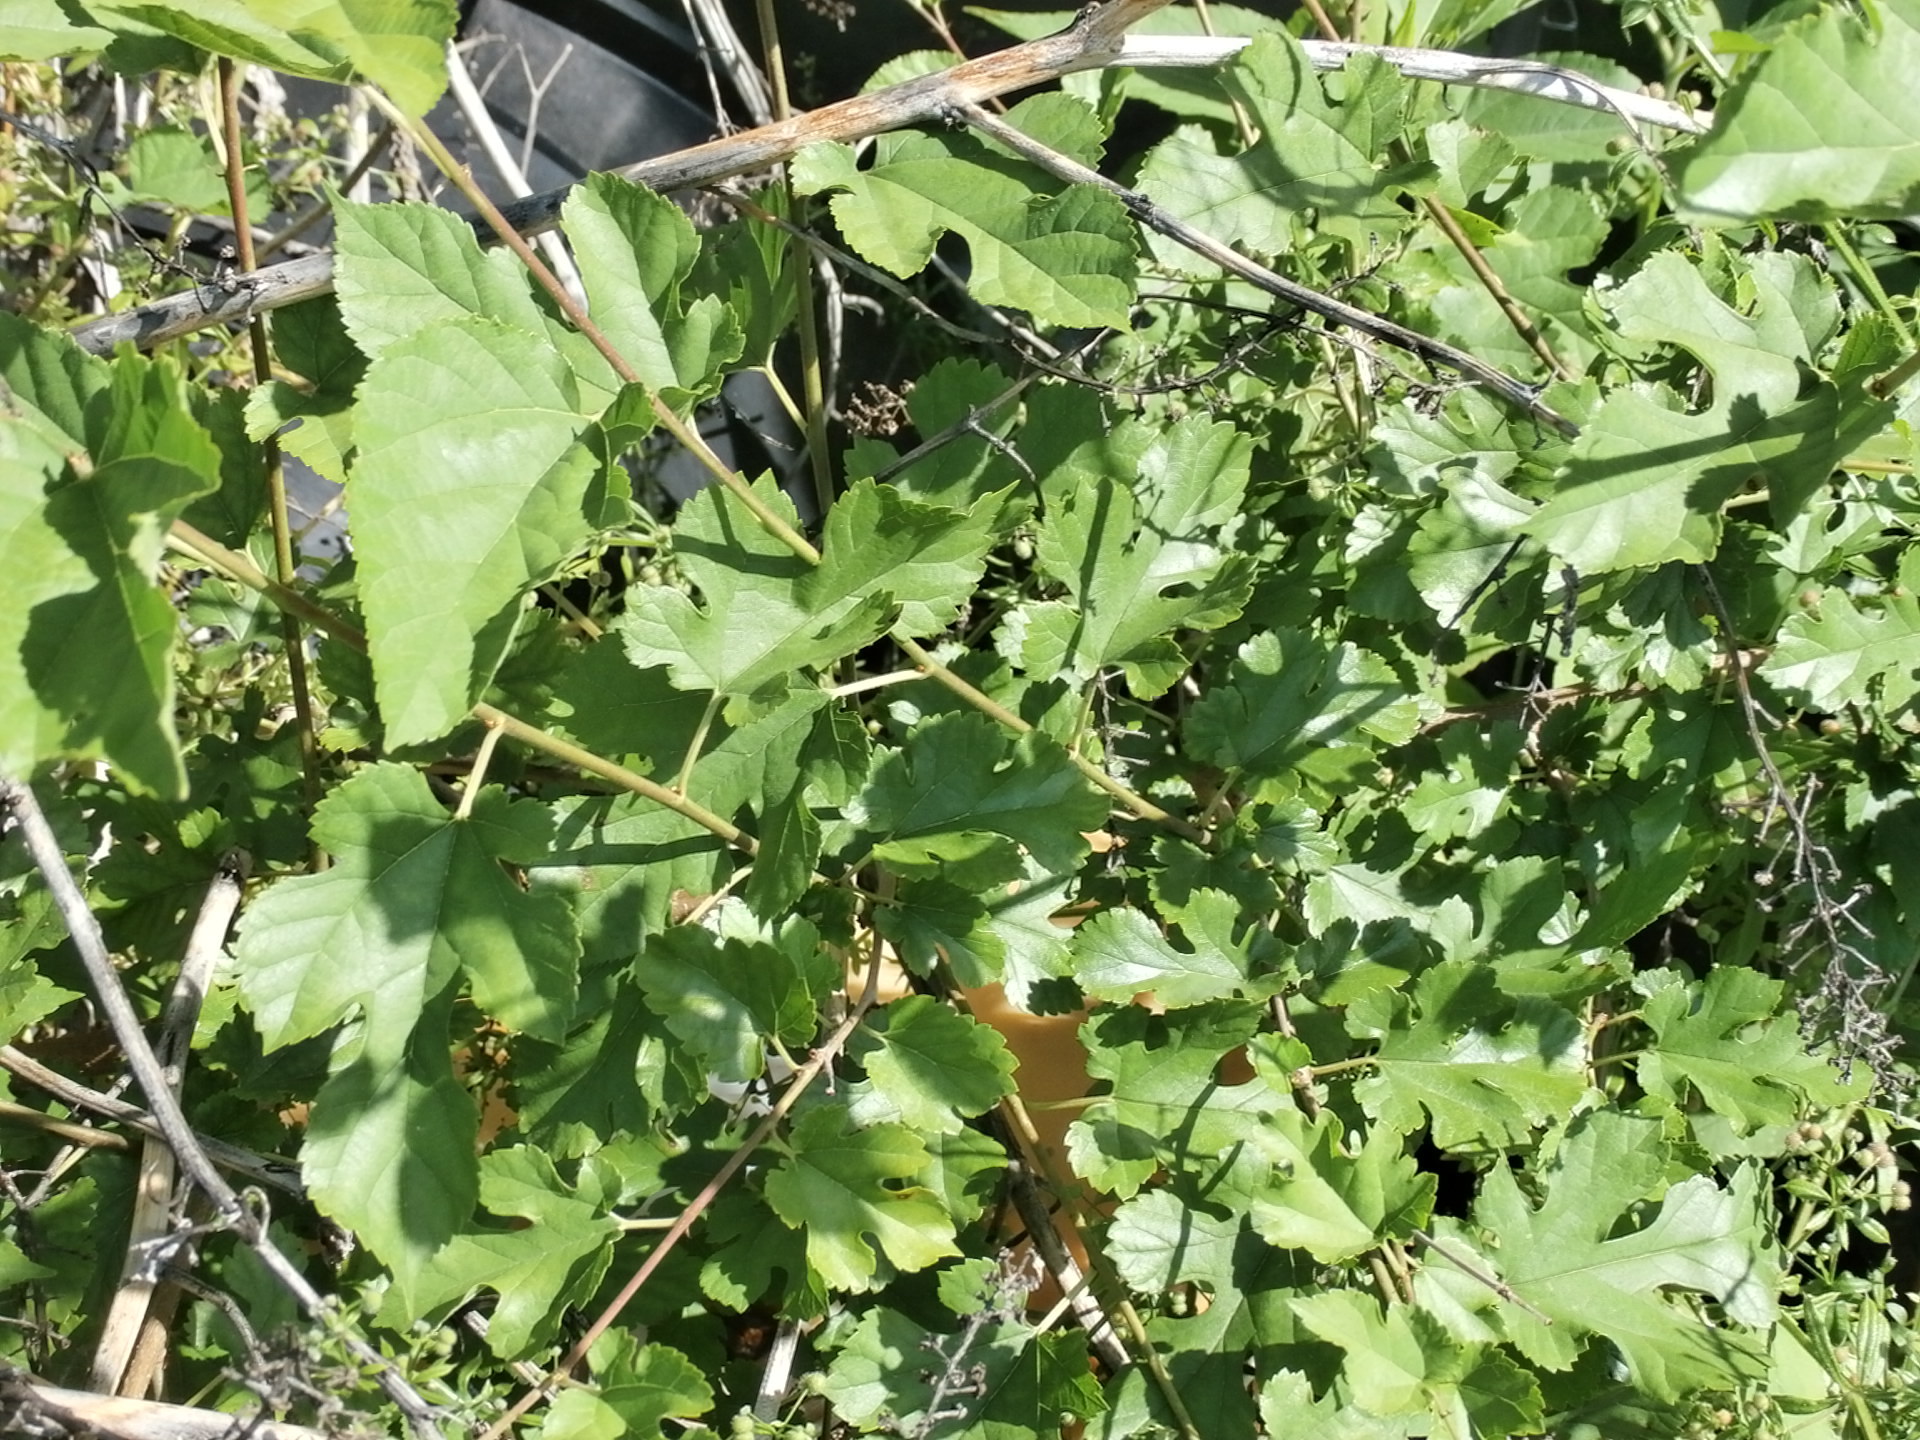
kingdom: Plantae
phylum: Tracheophyta
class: Magnoliopsida
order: Rosales
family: Moraceae
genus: Morus
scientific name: Morus alba
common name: White mulberry
